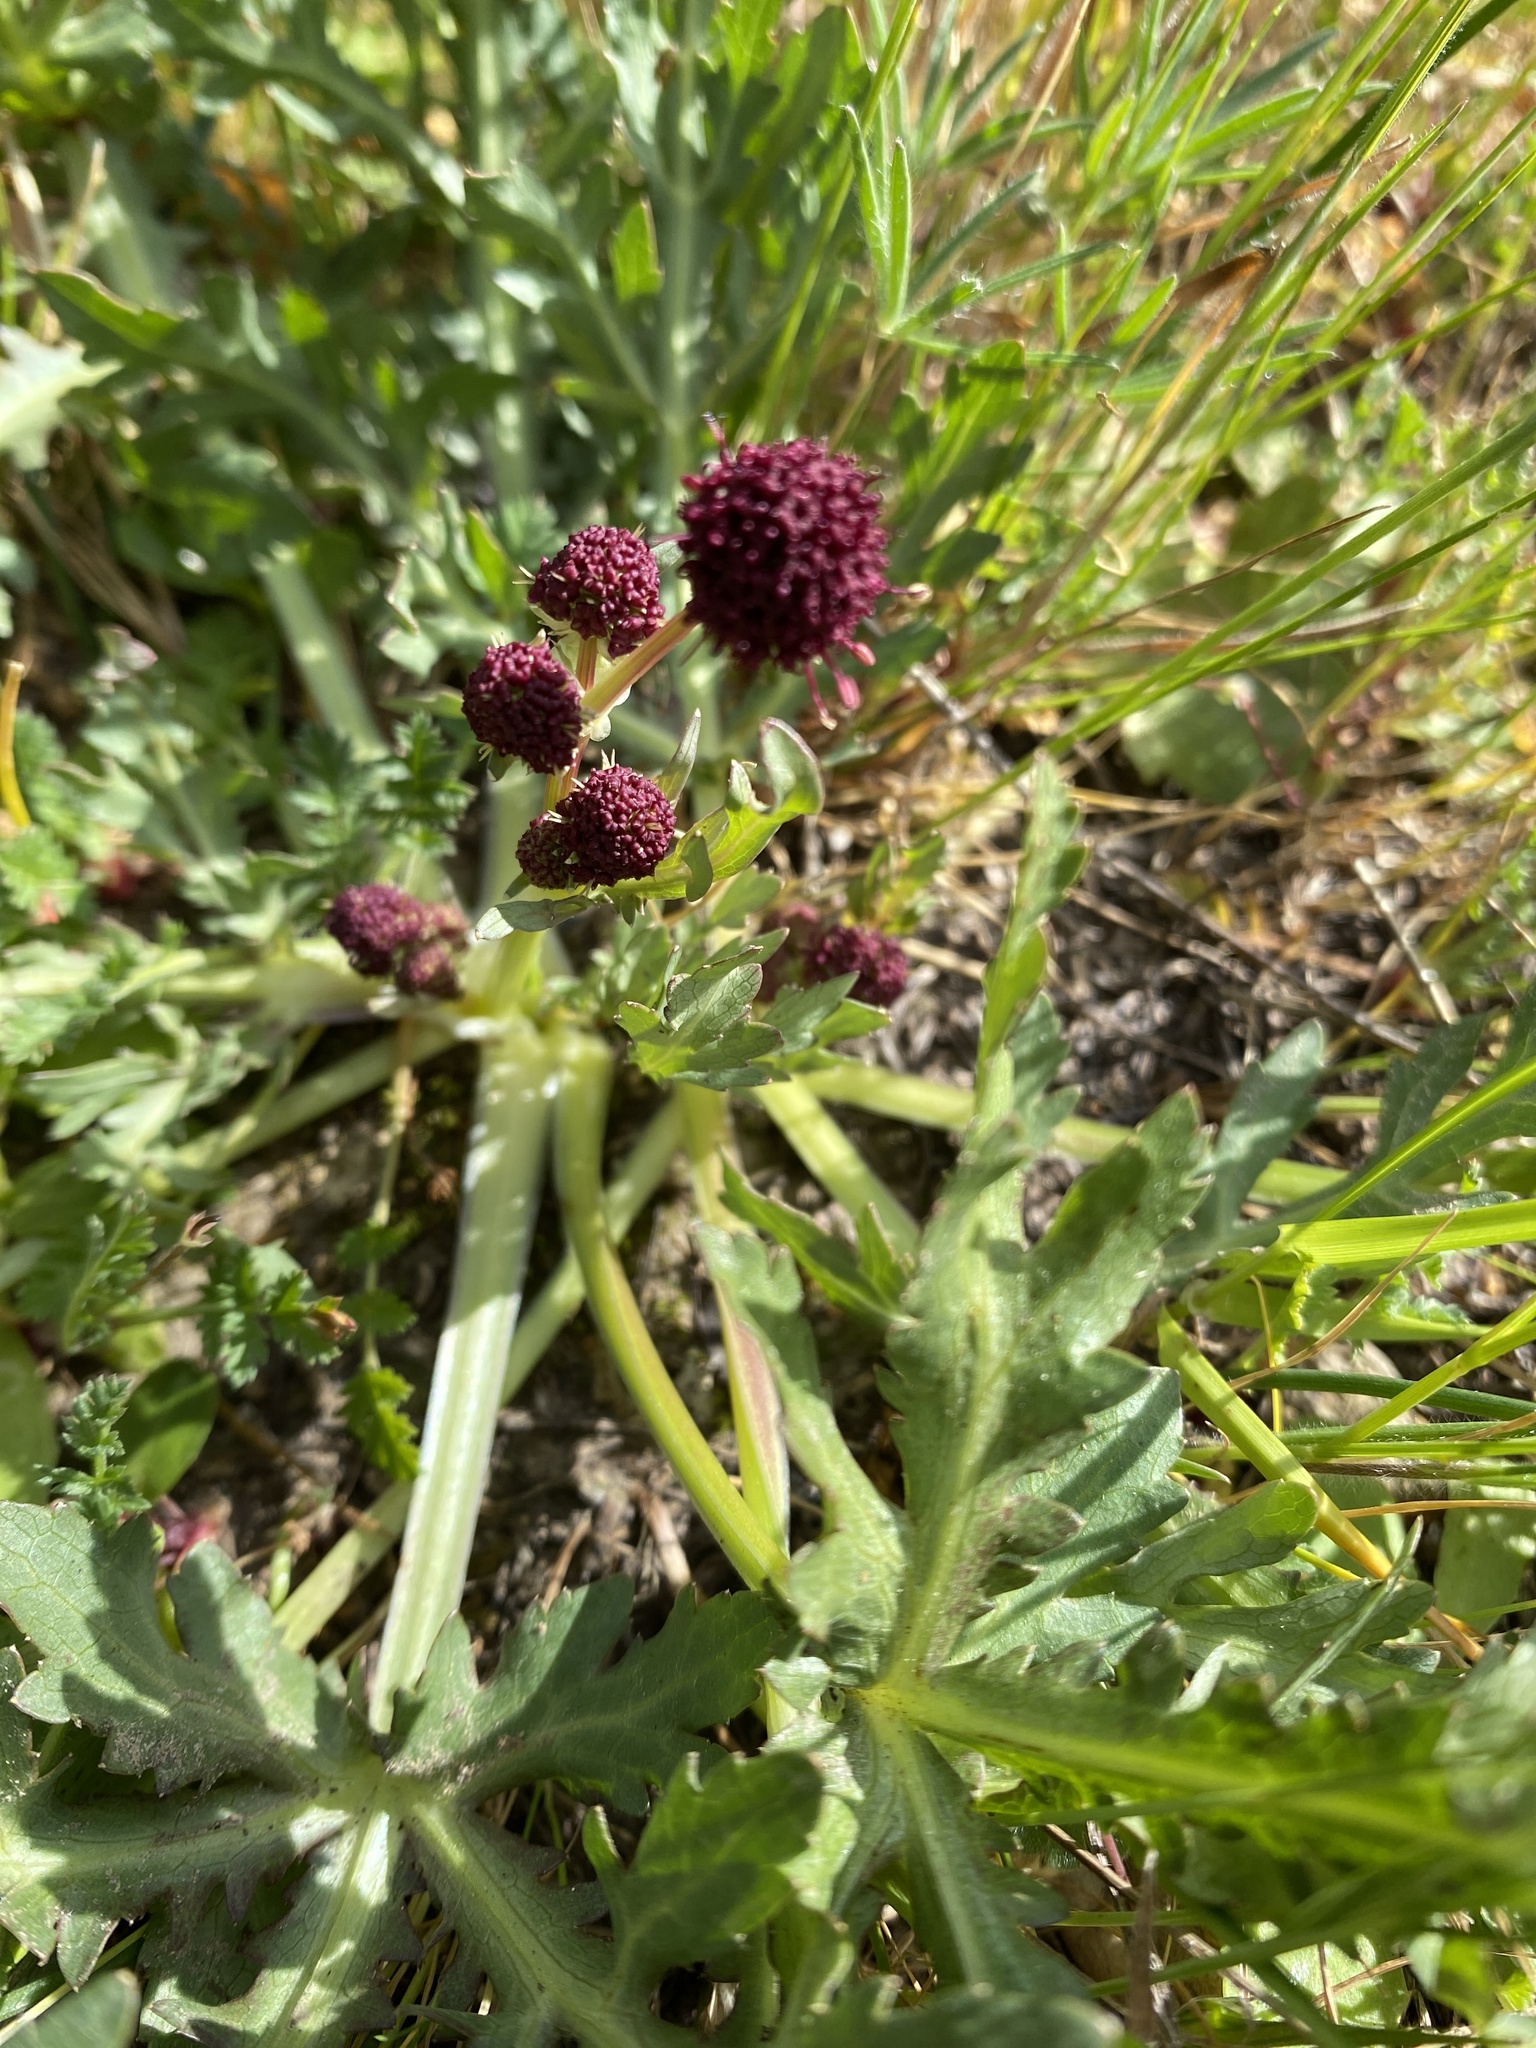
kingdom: Plantae
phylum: Tracheophyta
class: Magnoliopsida
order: Apiales
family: Apiaceae
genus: Sanicula
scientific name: Sanicula bipinnatifida
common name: Shoe-buttons
